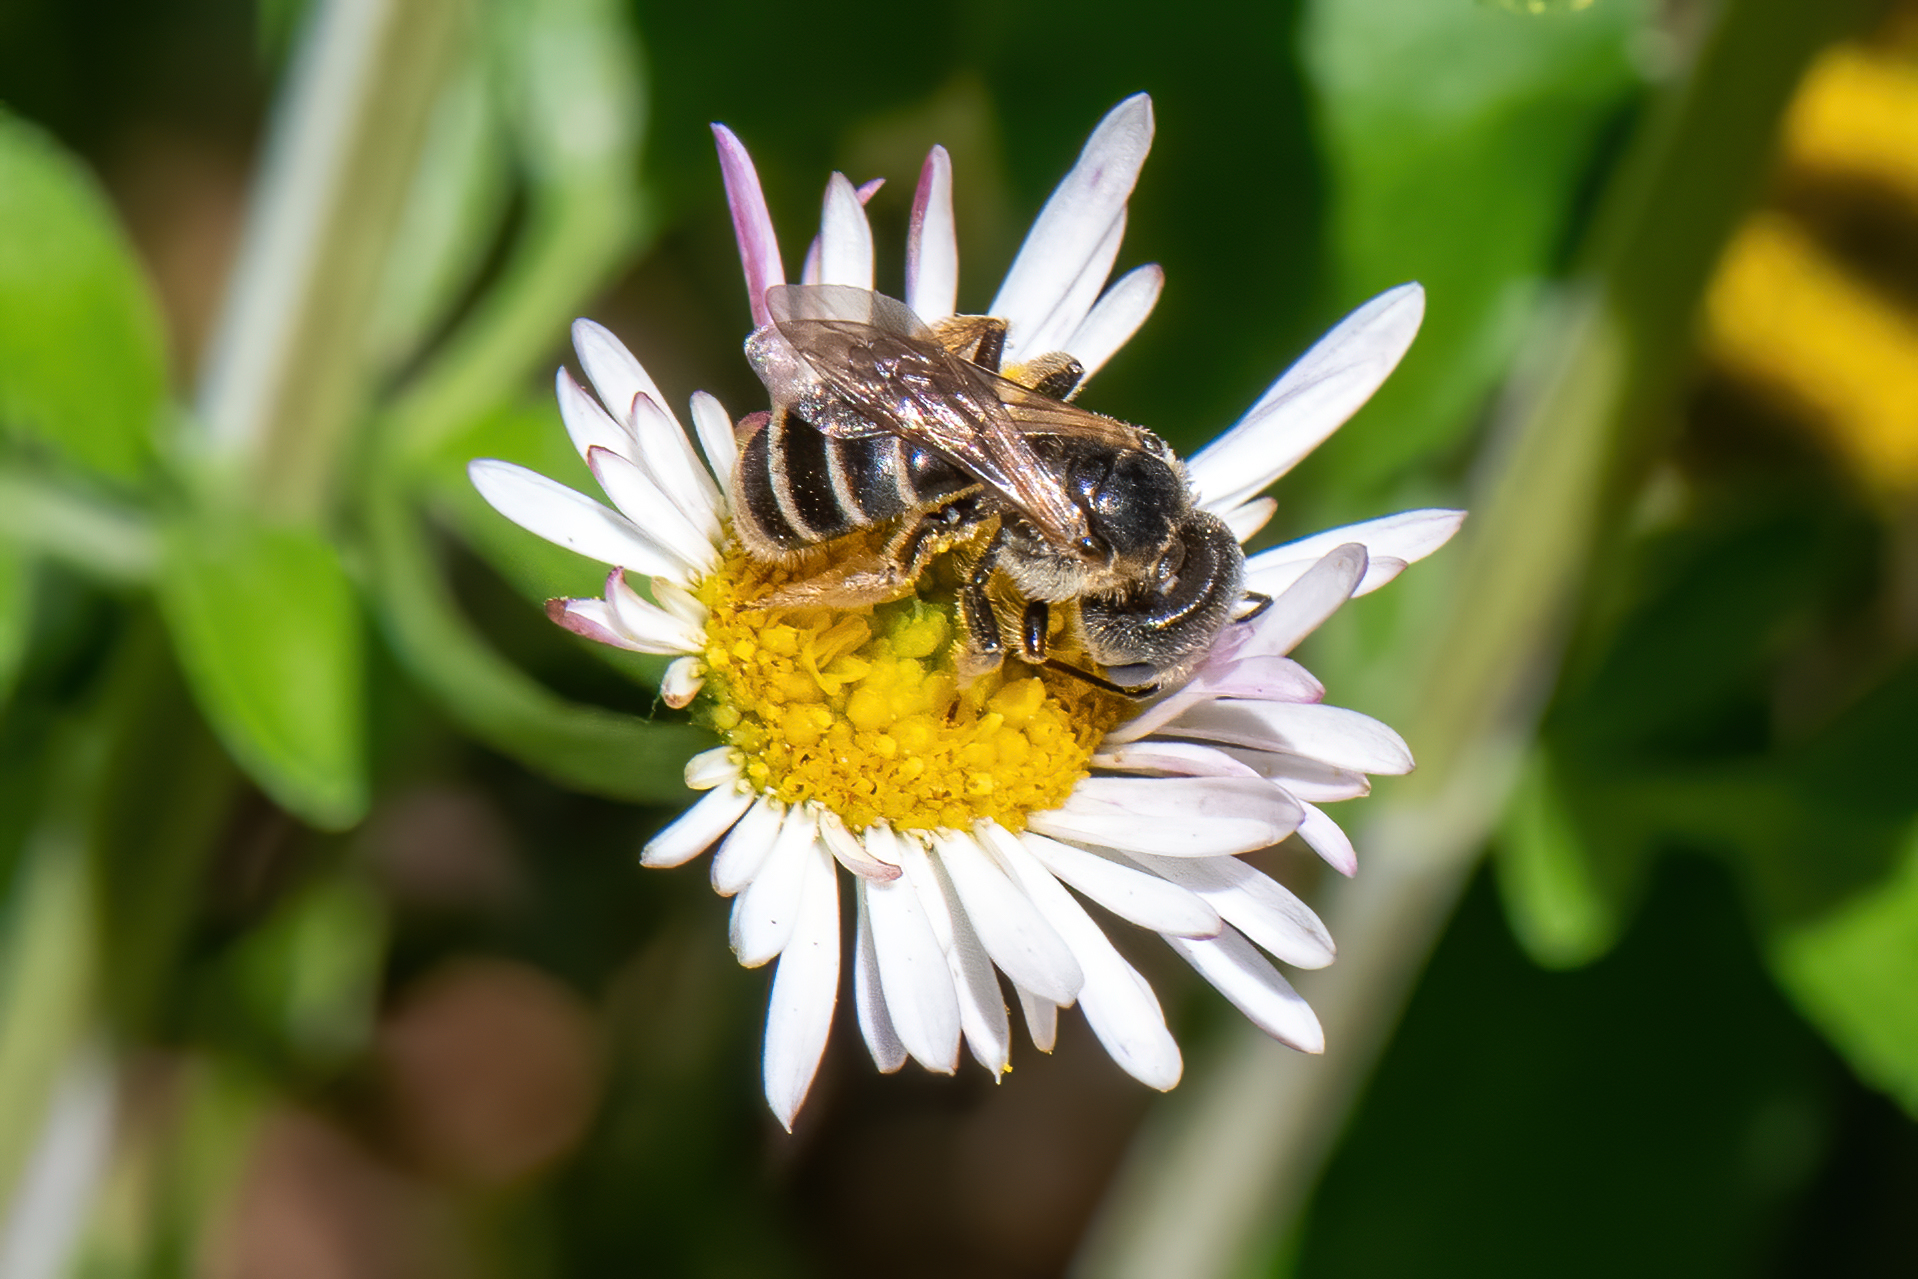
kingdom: Animalia
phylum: Arthropoda
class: Insecta
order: Hymenoptera
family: Halictidae
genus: Halictus
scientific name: Halictus ligatus
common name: Ligated furrow bee
